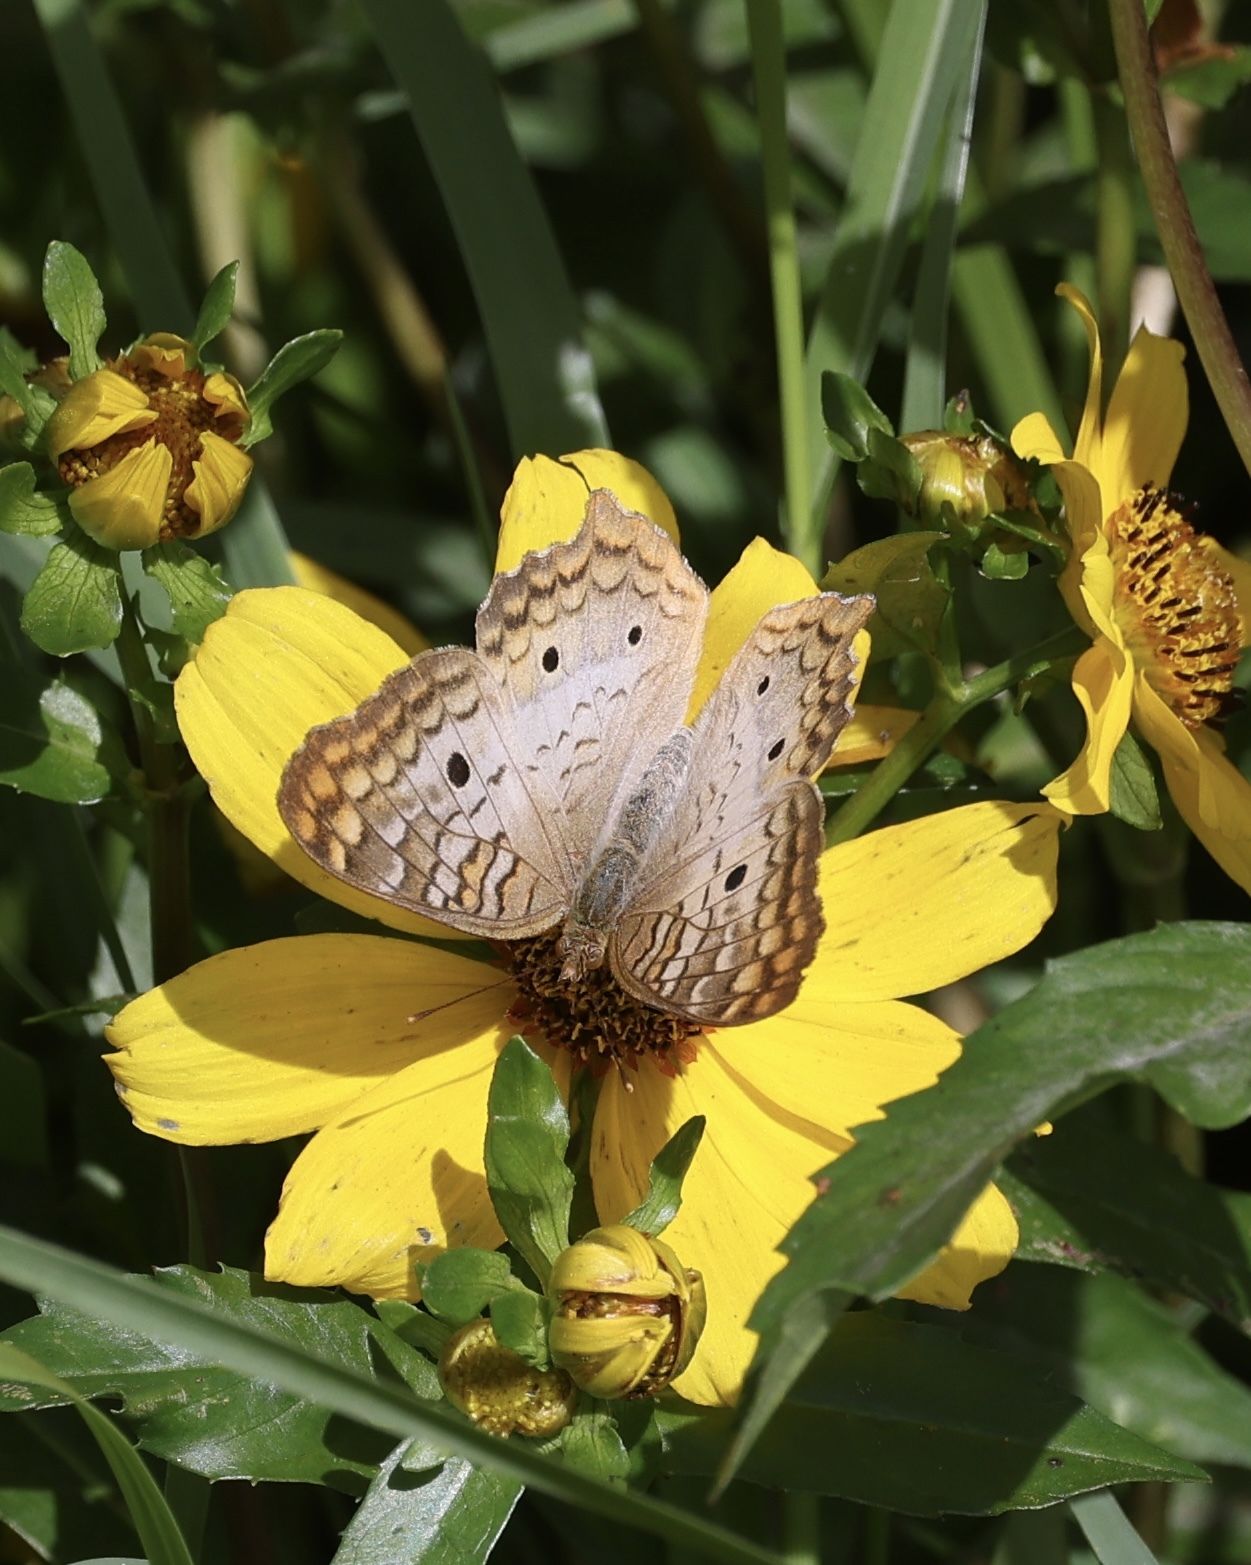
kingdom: Animalia
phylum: Arthropoda
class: Insecta
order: Lepidoptera
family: Nymphalidae
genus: Anartia
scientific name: Anartia jatrophae
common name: White peacock
